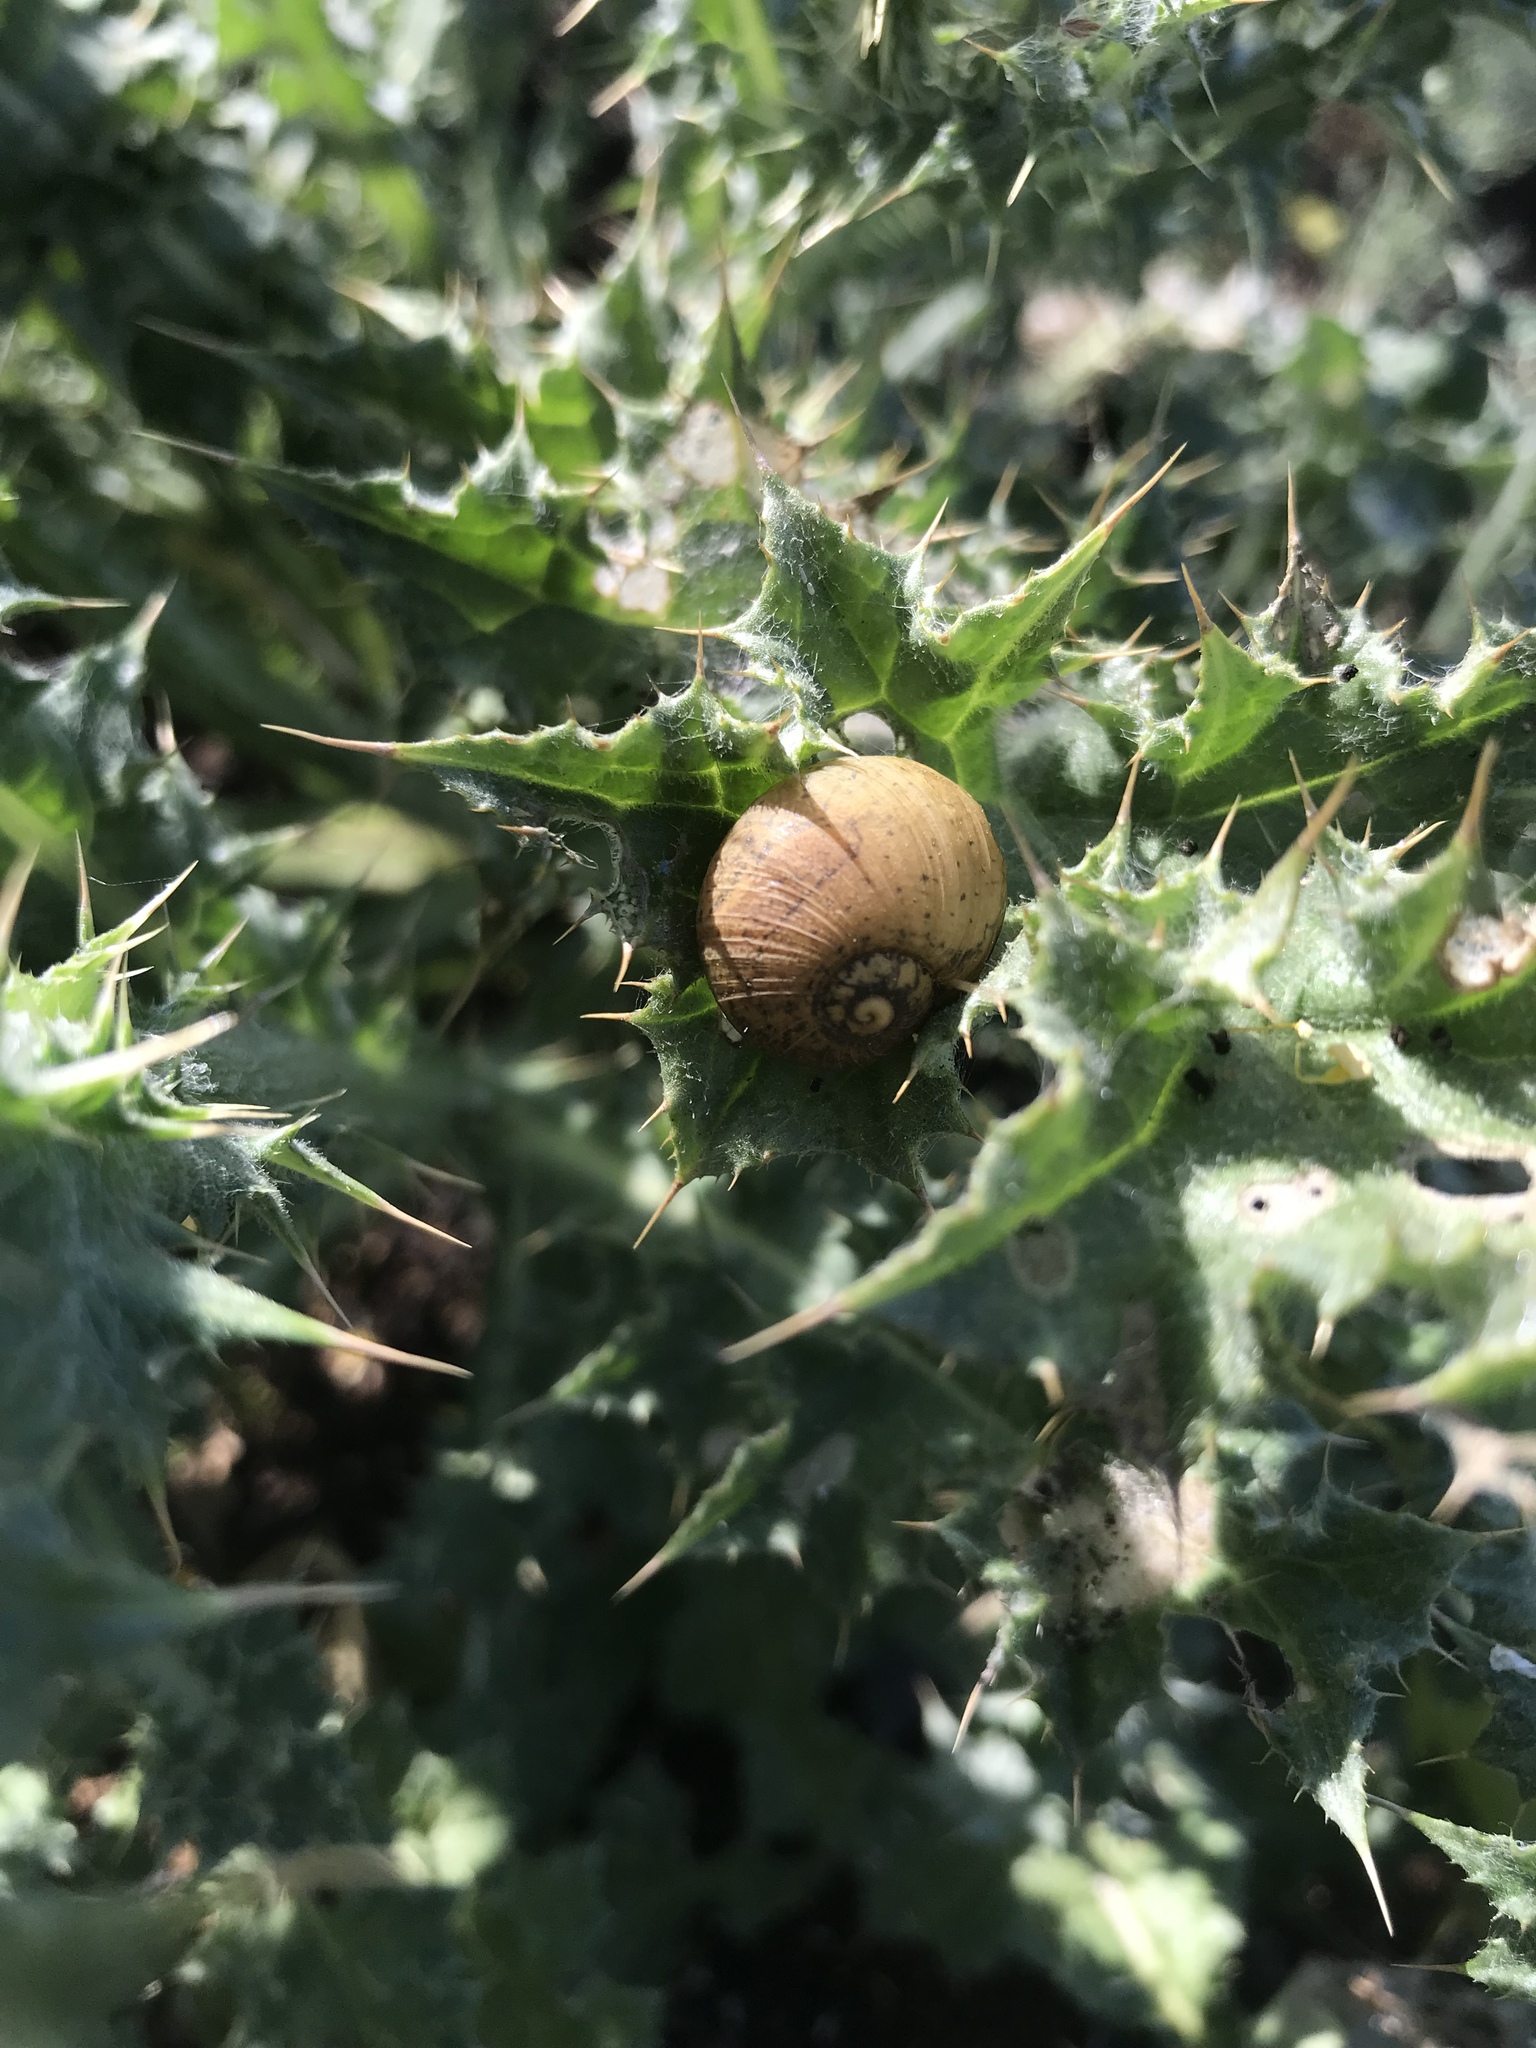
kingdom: Animalia
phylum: Mollusca
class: Gastropoda
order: Stylommatophora
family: Helicidae
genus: Cantareus
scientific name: Cantareus apertus
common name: Green gardensnail
